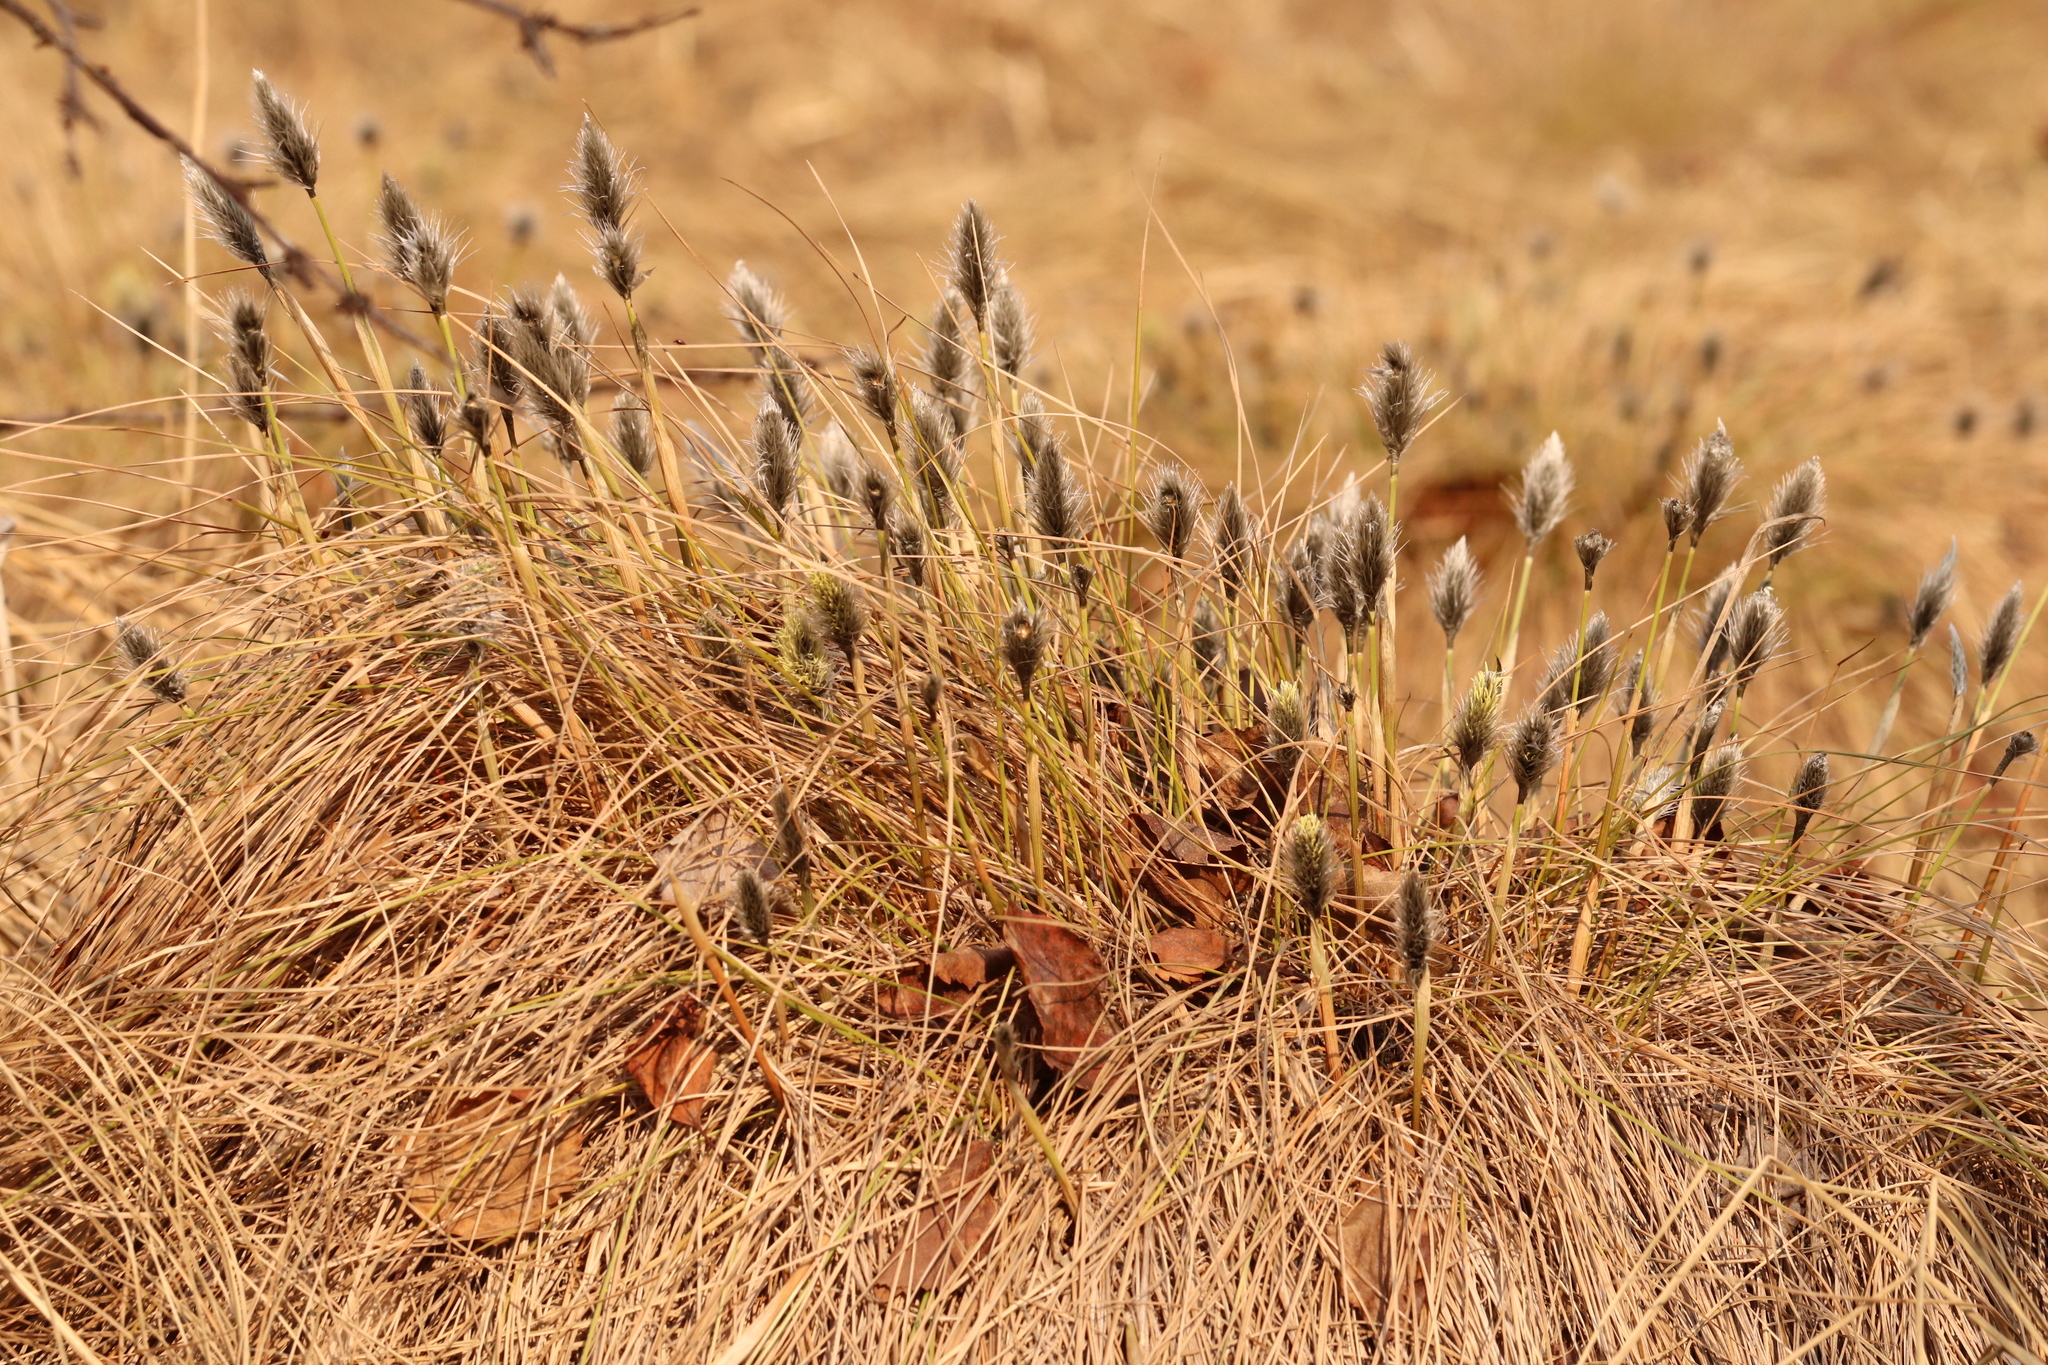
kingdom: Plantae
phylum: Tracheophyta
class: Liliopsida
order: Poales
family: Cyperaceae
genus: Eriophorum
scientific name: Eriophorum vaginatum
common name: Hare's-tail cottongrass
